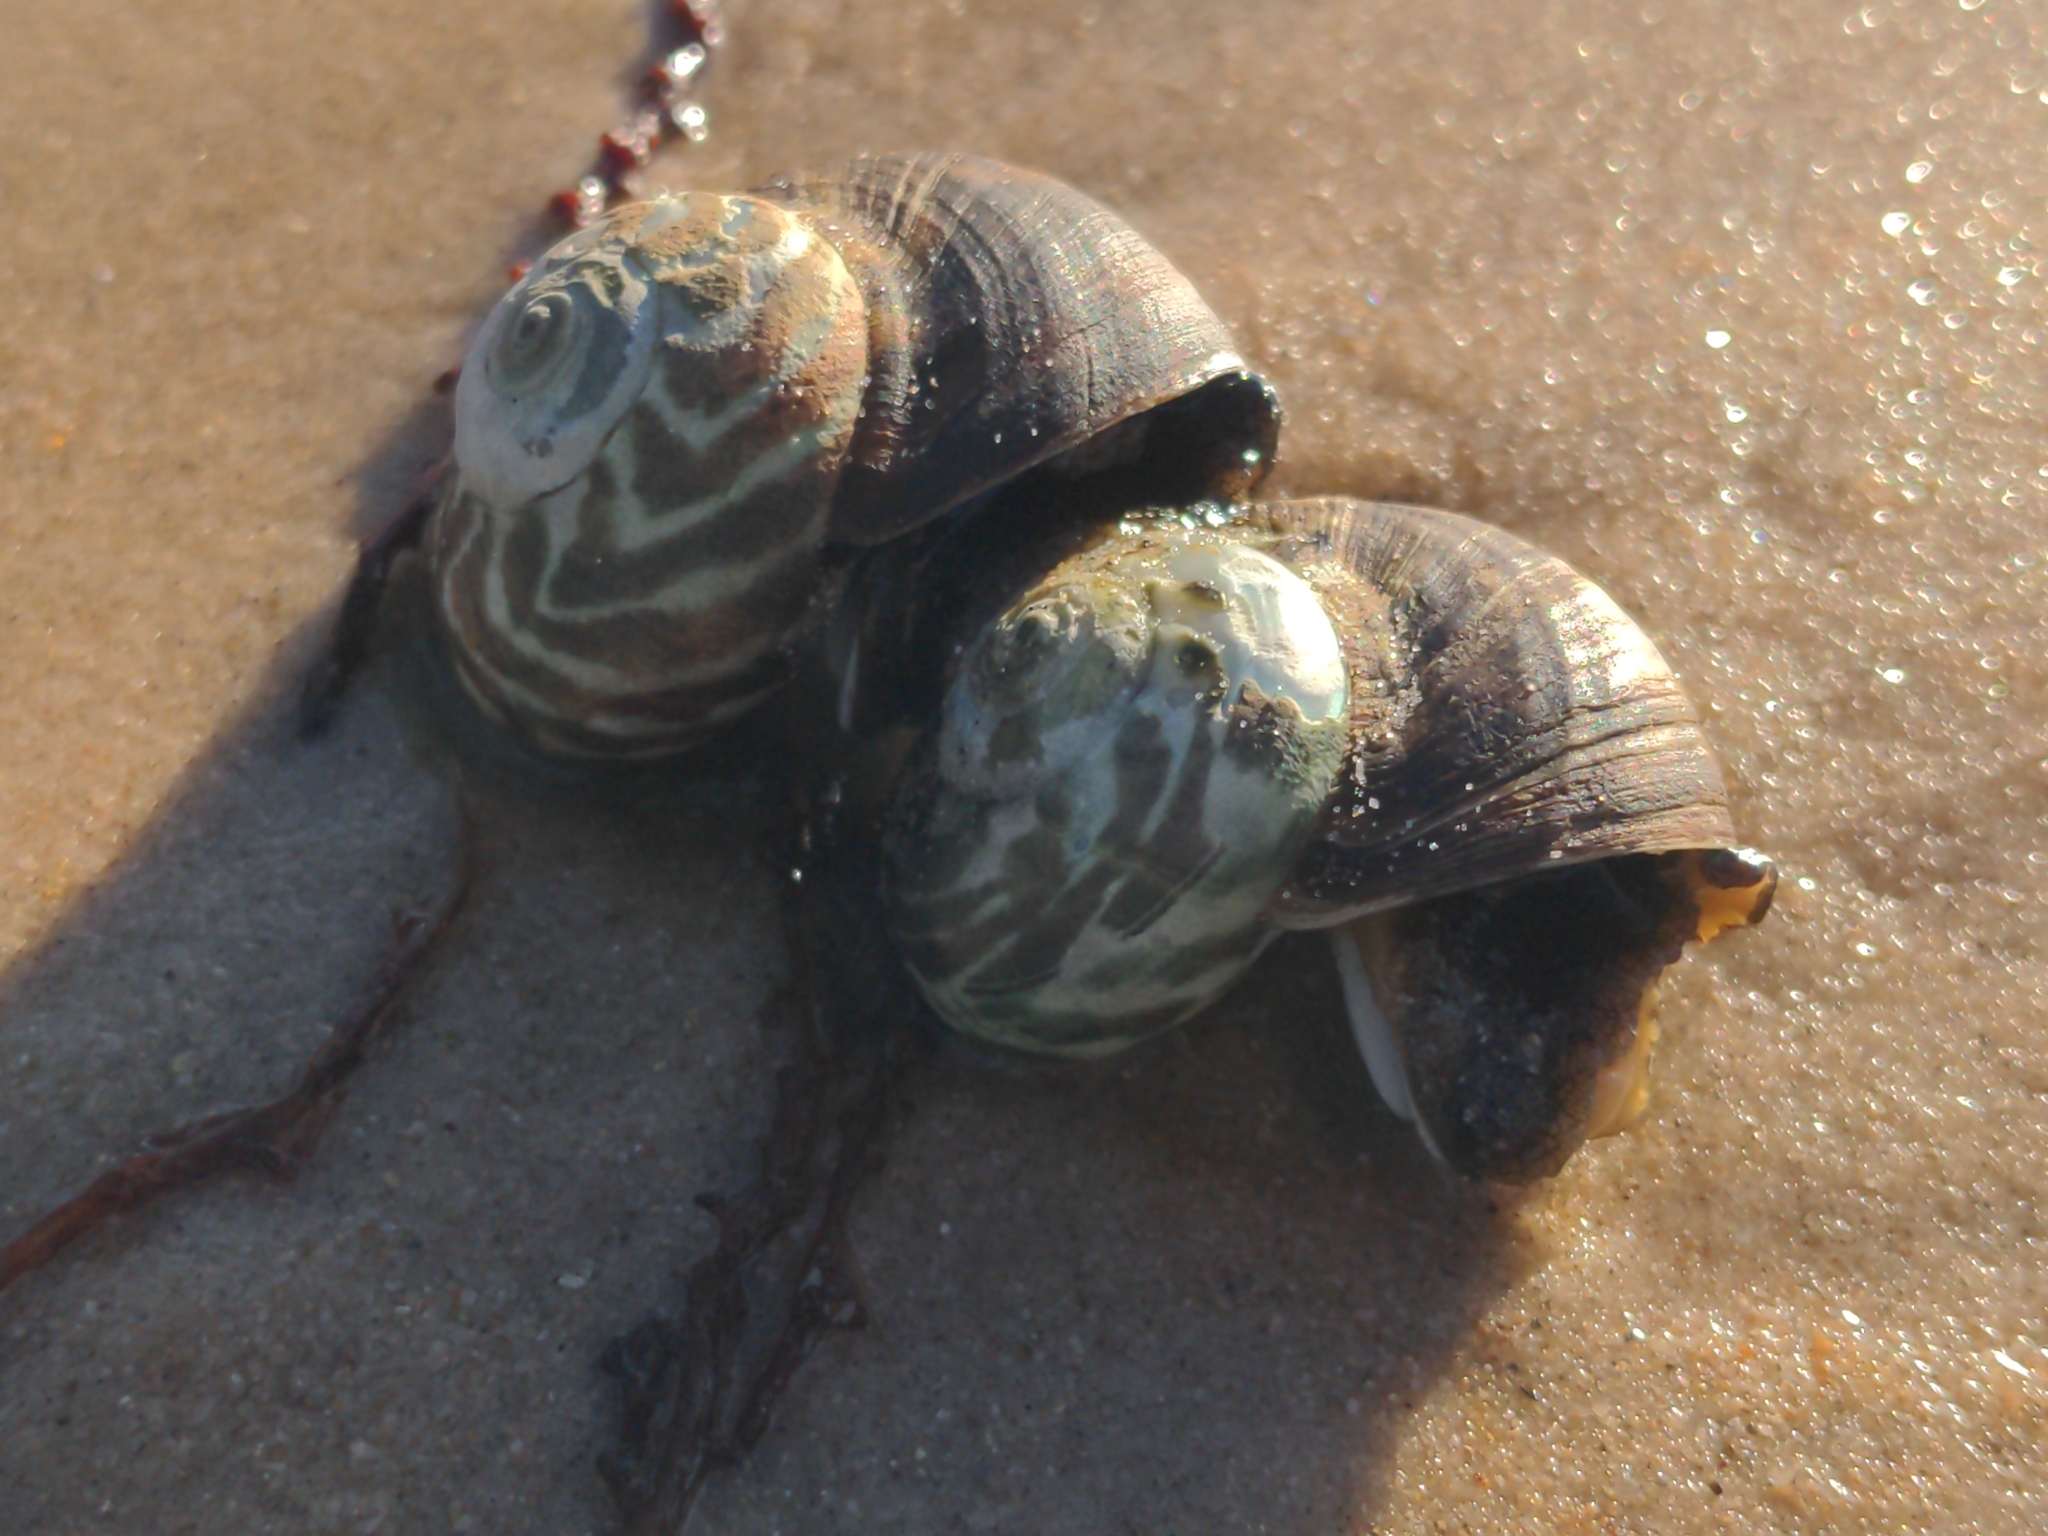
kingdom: Animalia
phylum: Mollusca
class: Gastropoda
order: Trochida
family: Turbinidae
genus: Lunella
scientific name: Lunella undulata
